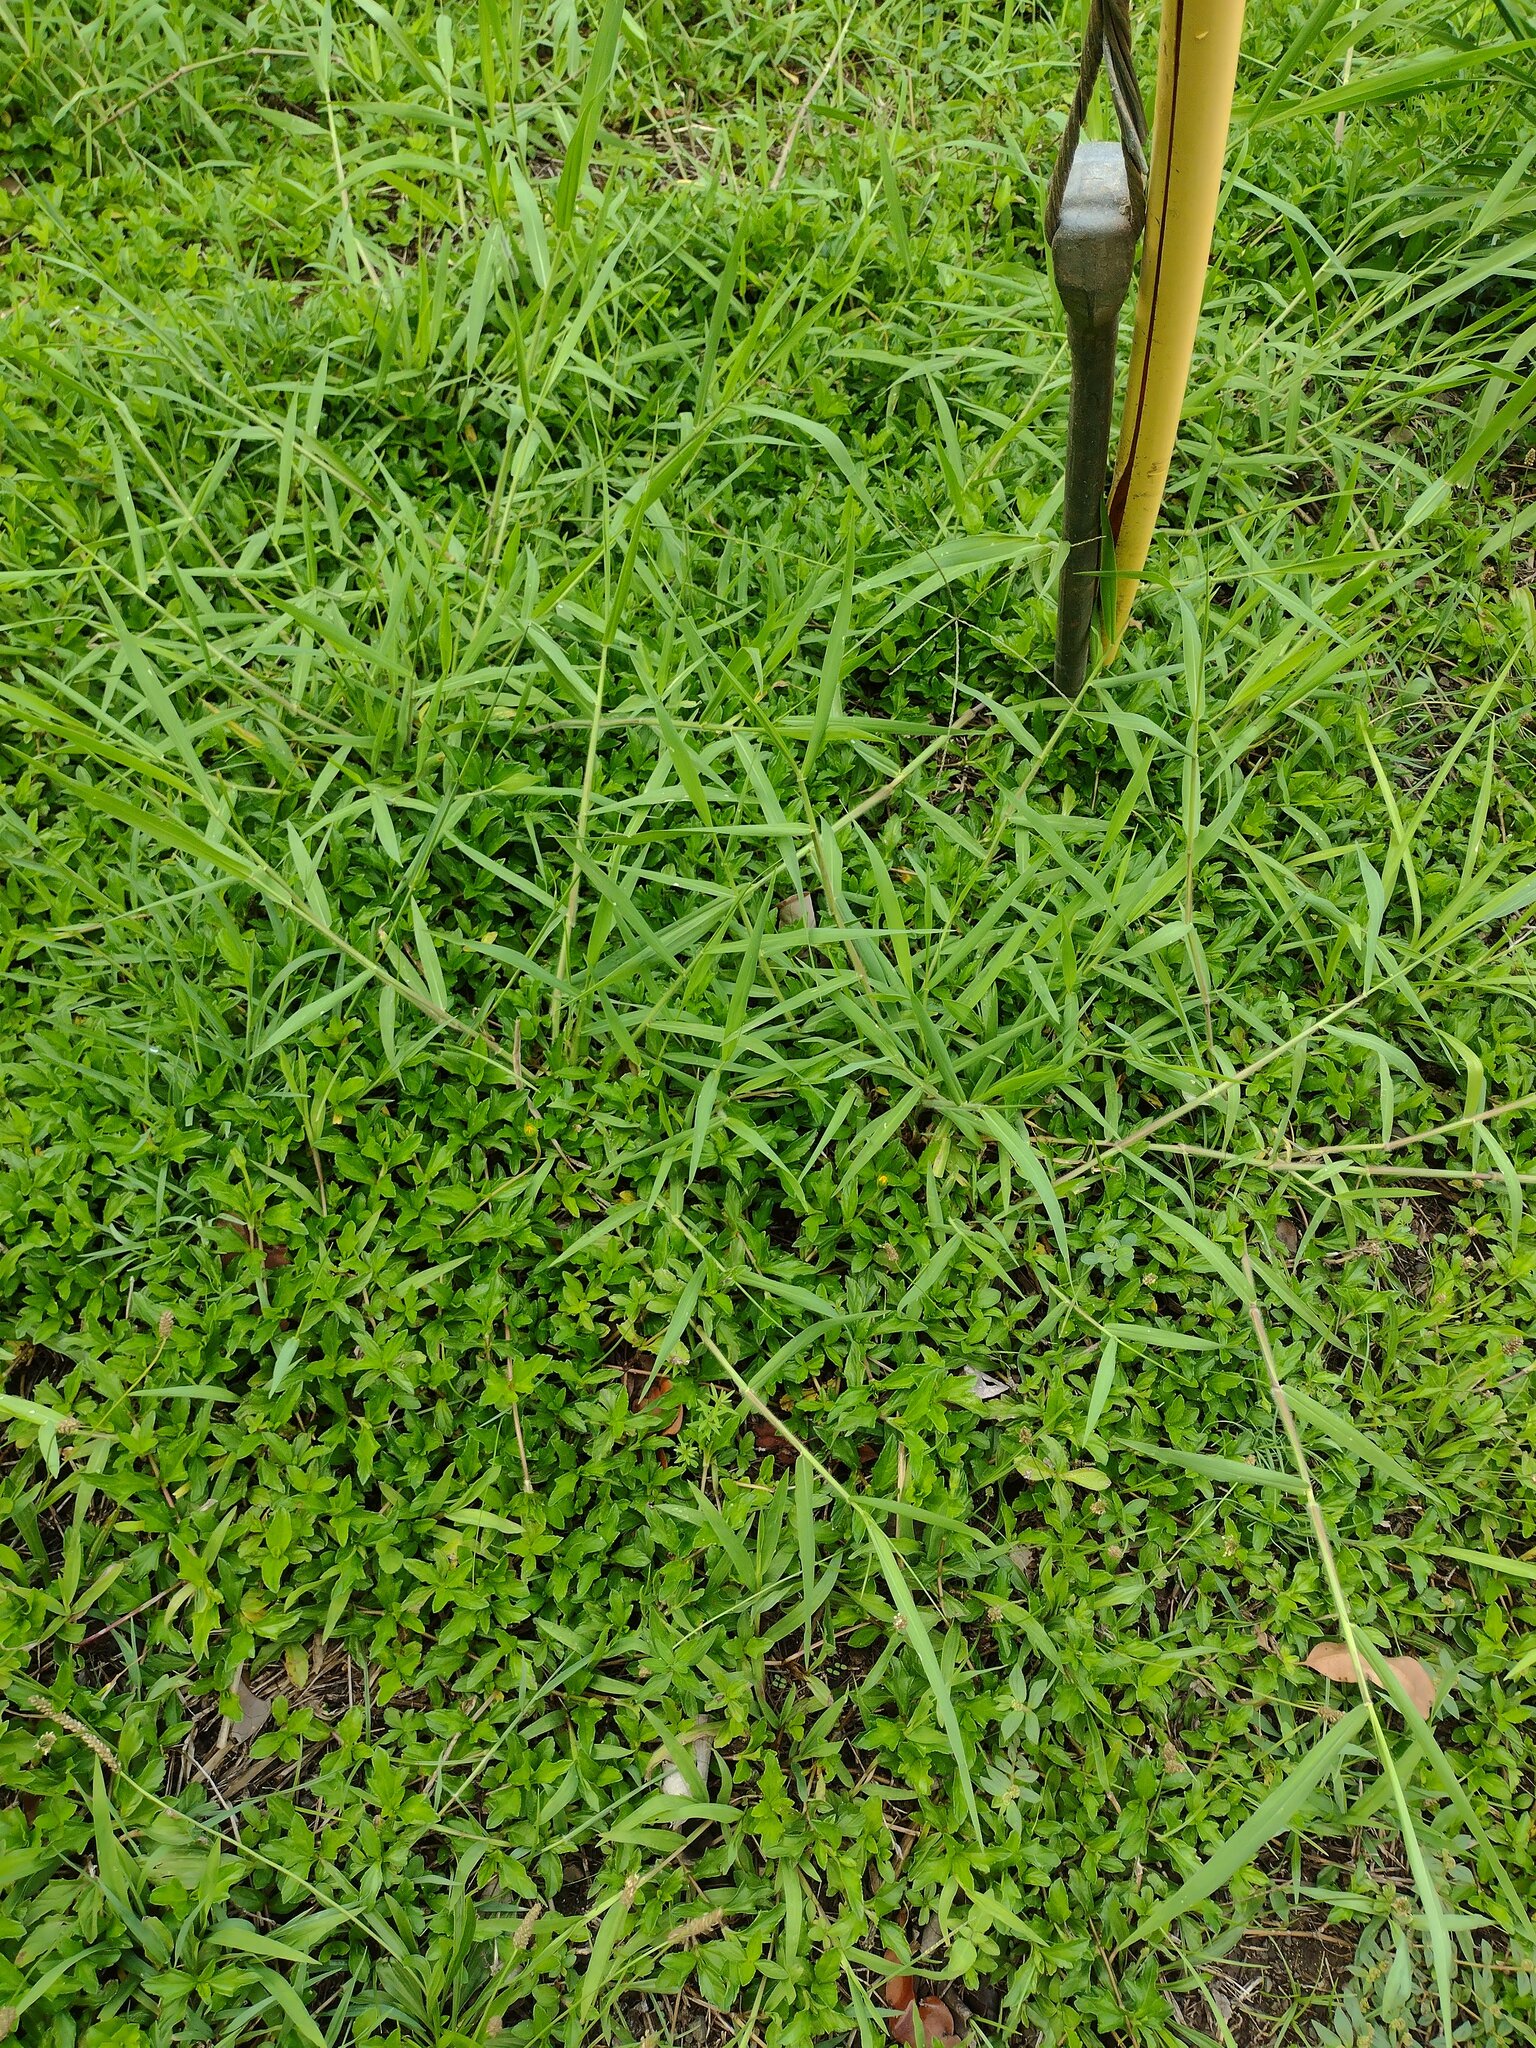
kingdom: Plantae
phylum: Tracheophyta
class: Liliopsida
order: Poales
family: Poaceae
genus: Urochloa
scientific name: Urochloa mutica
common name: Para grass
